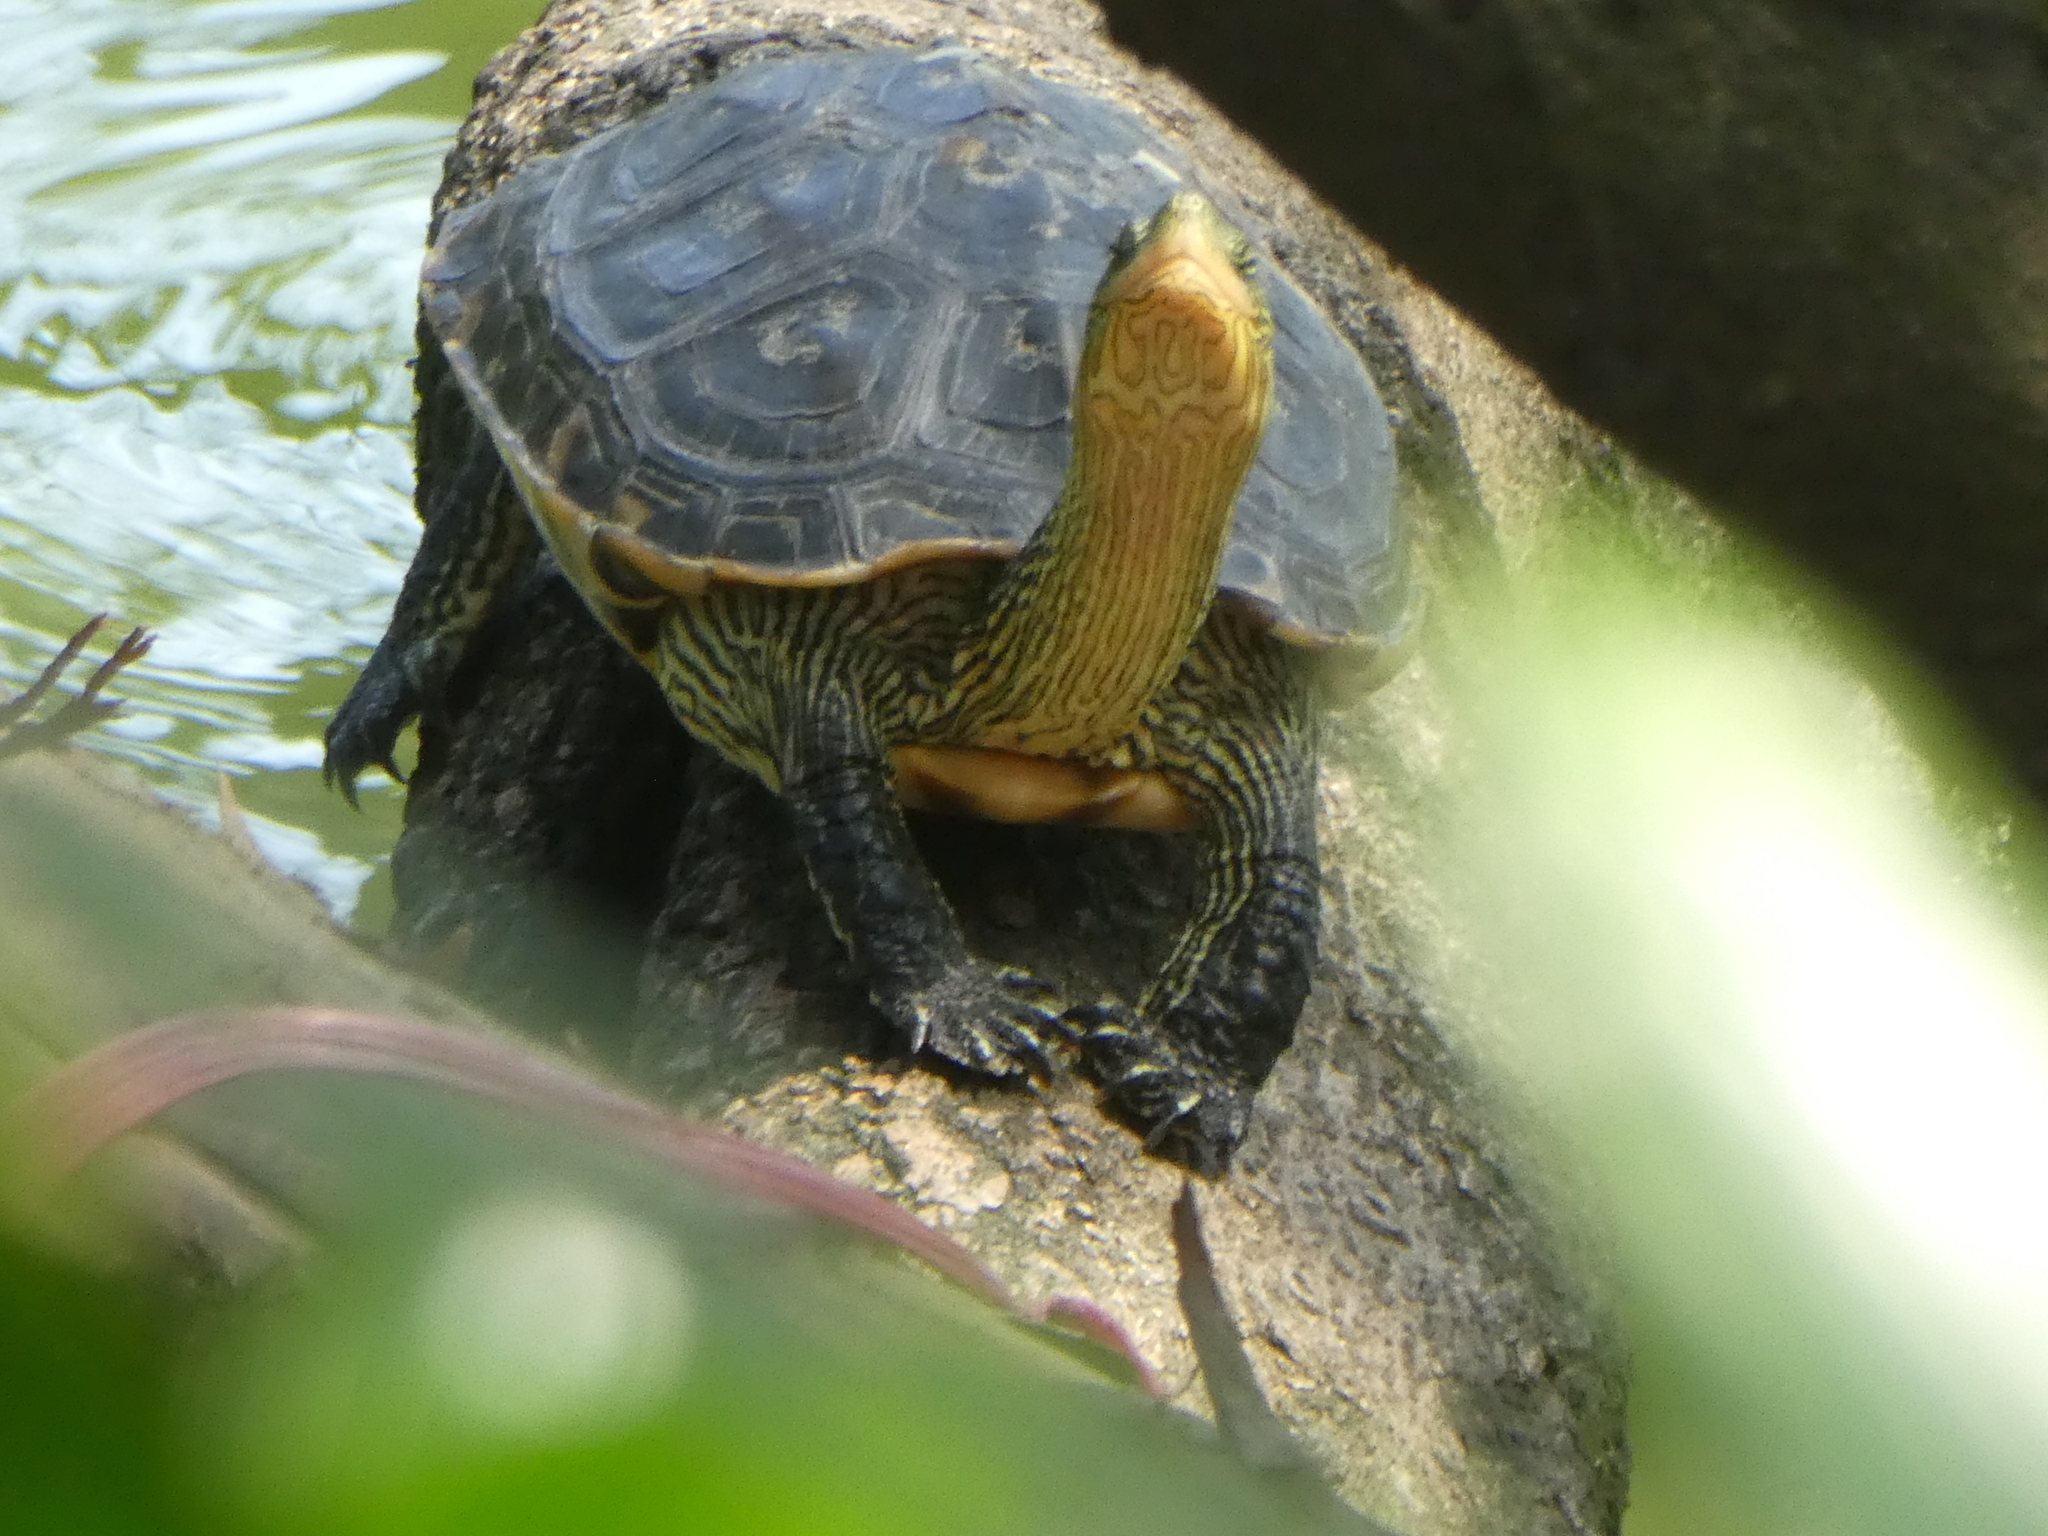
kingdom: Animalia
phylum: Chordata
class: Testudines
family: Geoemydidae
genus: Mauremys
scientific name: Mauremys sinensis
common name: Chinese stripe-necked turtle
